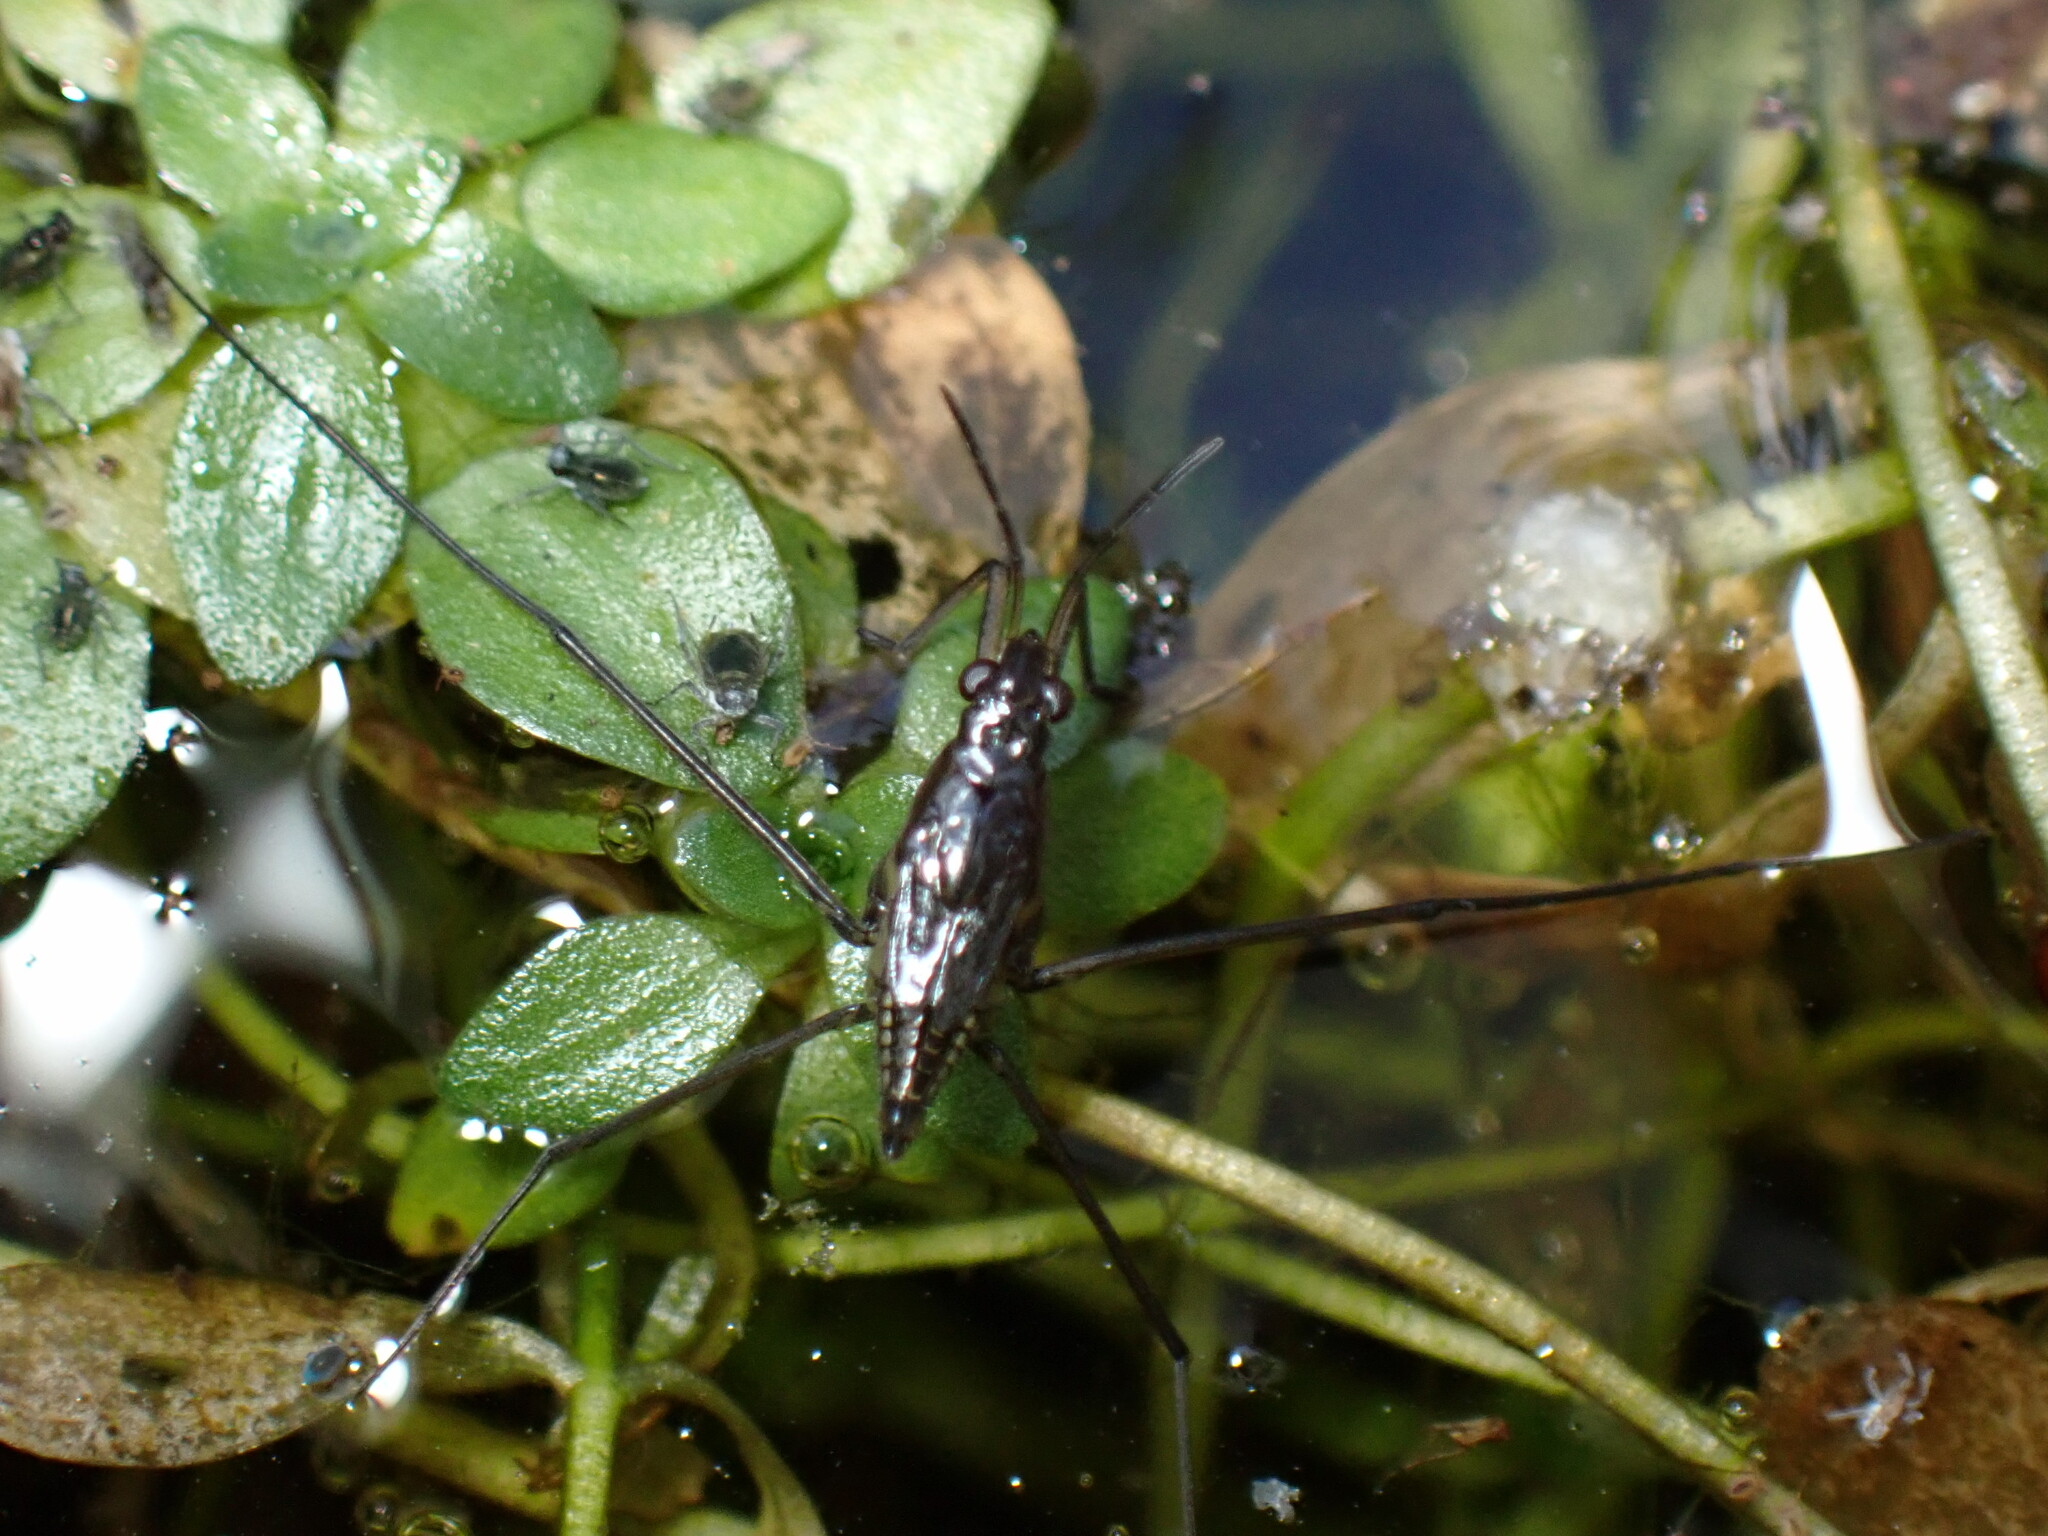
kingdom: Animalia
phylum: Arthropoda
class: Insecta
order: Hemiptera
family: Gerridae
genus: Gerris
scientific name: Gerris
